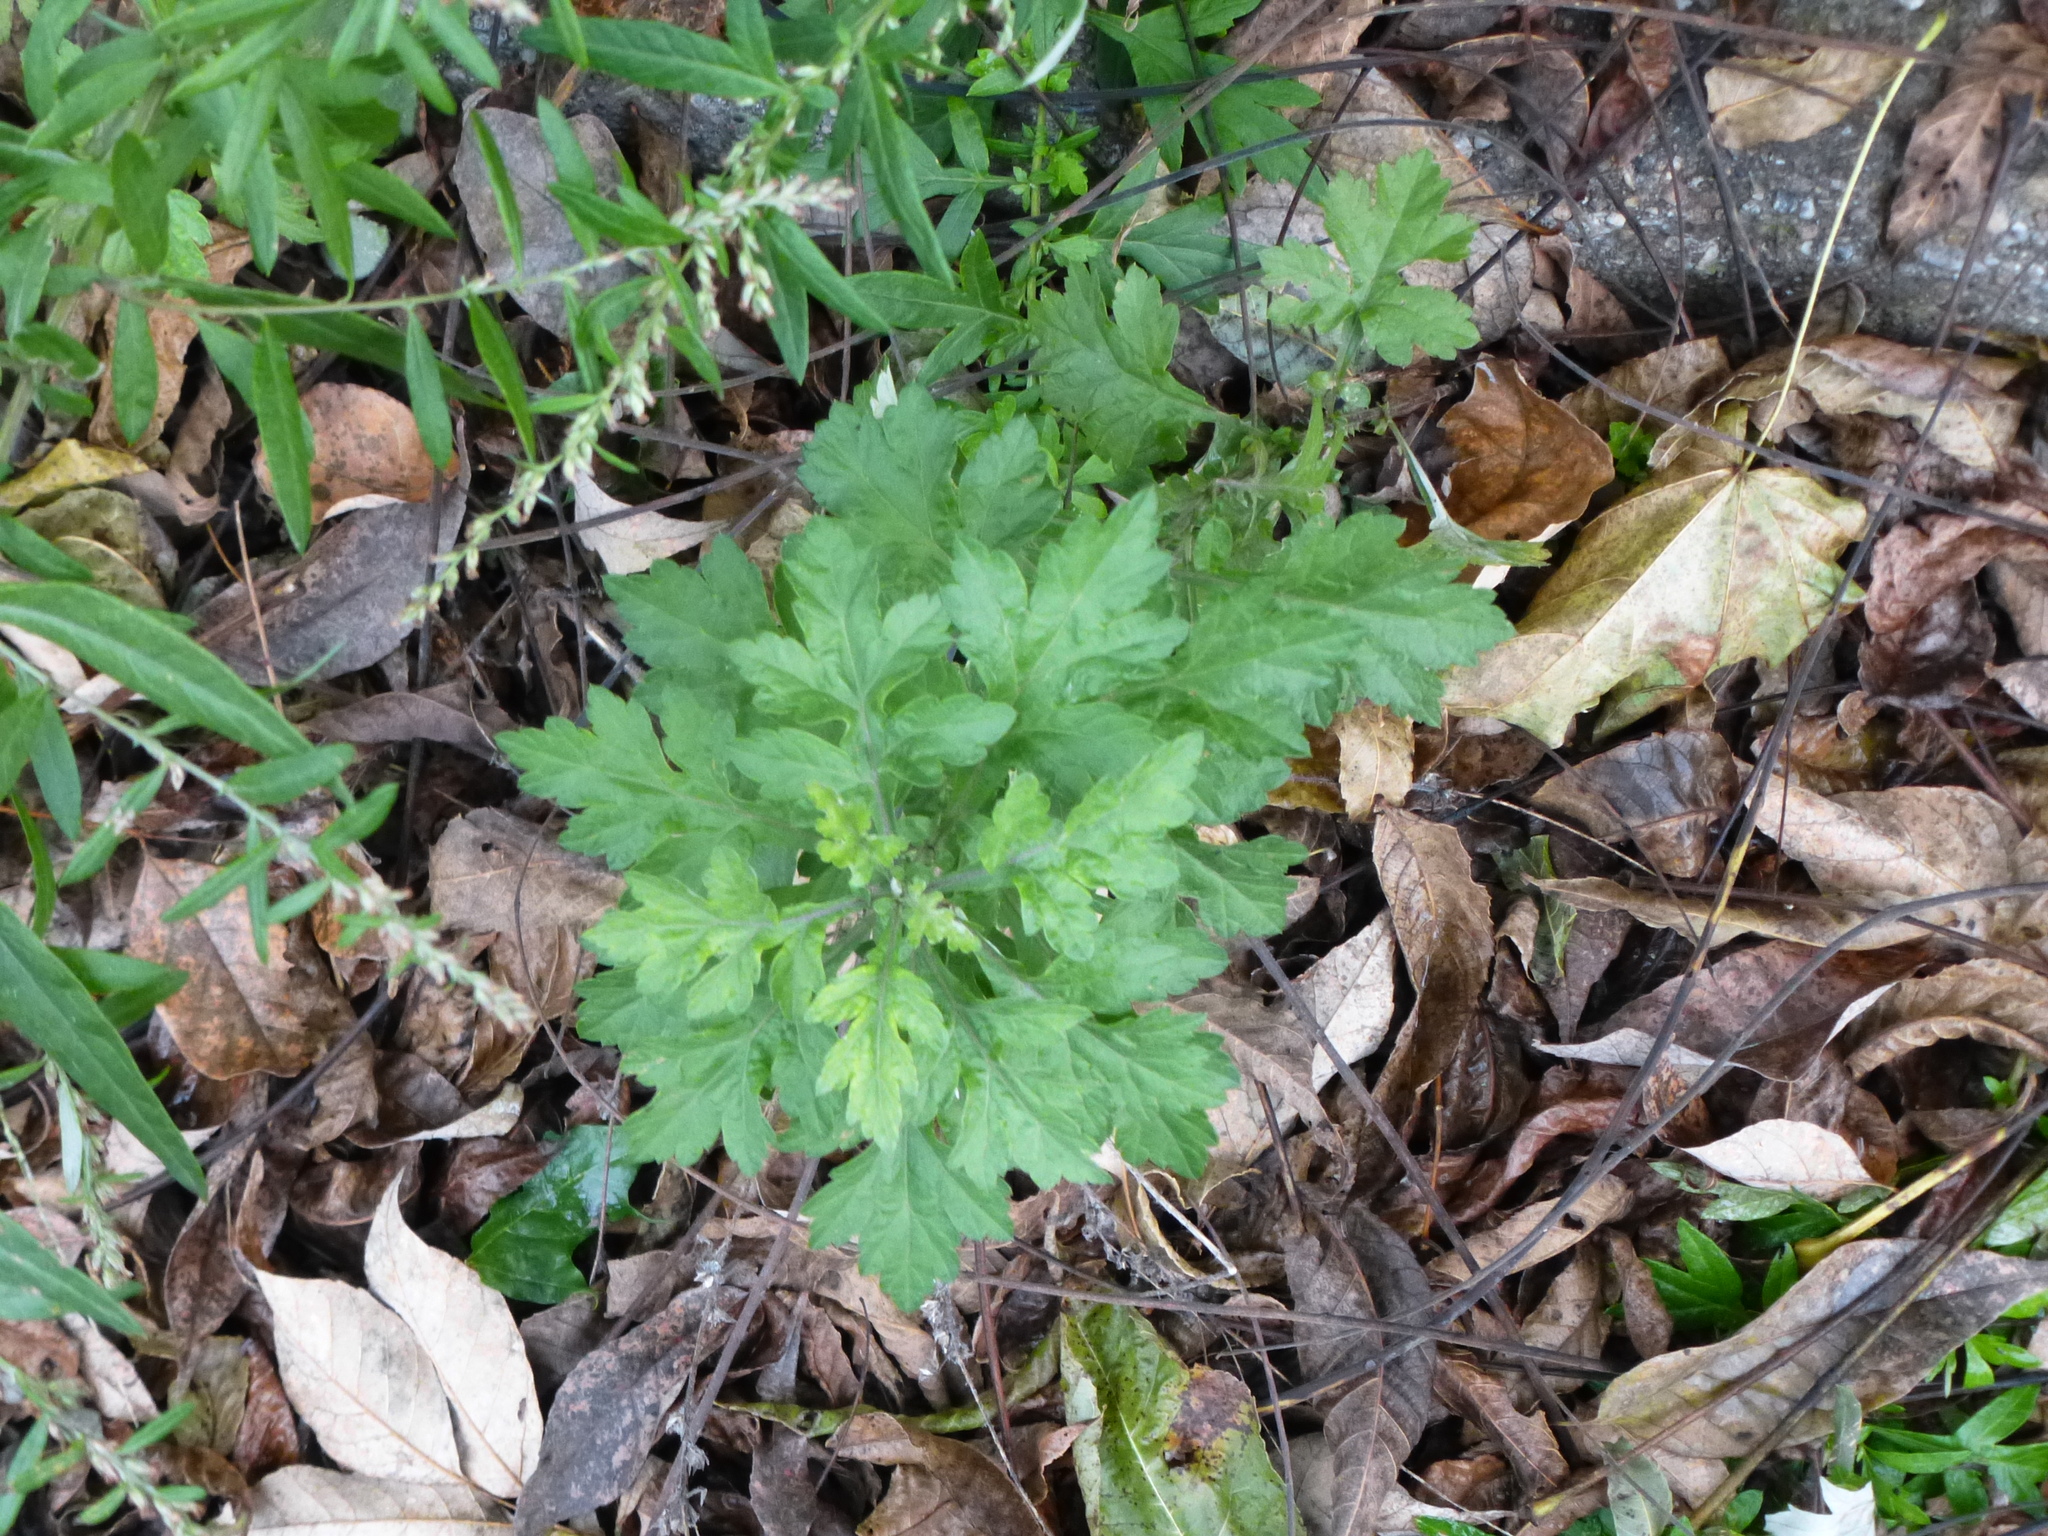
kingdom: Plantae
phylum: Tracheophyta
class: Magnoliopsida
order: Asterales
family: Asteraceae
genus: Artemisia
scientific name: Artemisia vulgaris
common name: Mugwort
